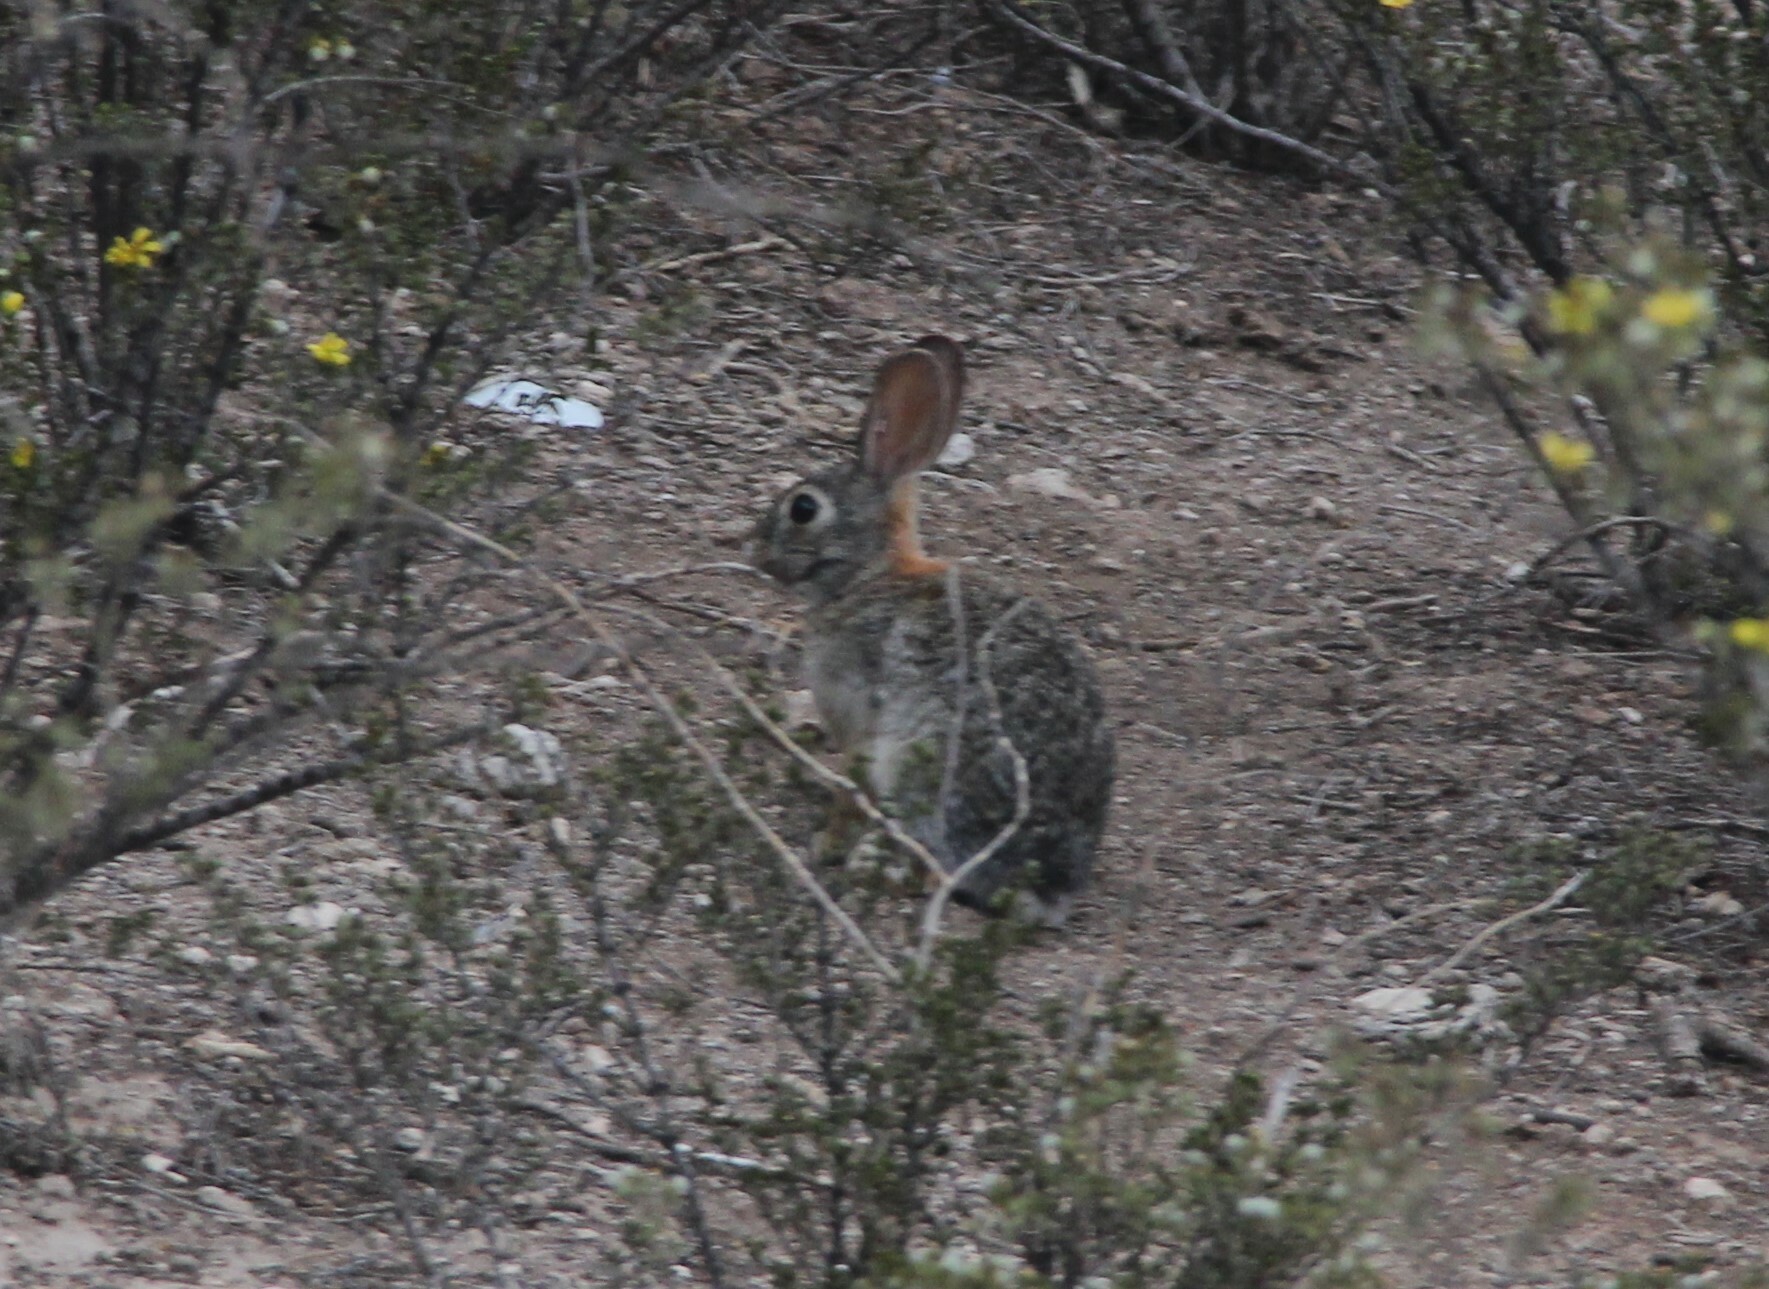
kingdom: Animalia
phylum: Chordata
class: Mammalia
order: Lagomorpha
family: Leporidae
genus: Sylvilagus
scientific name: Sylvilagus audubonii
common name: Desert cottontail
